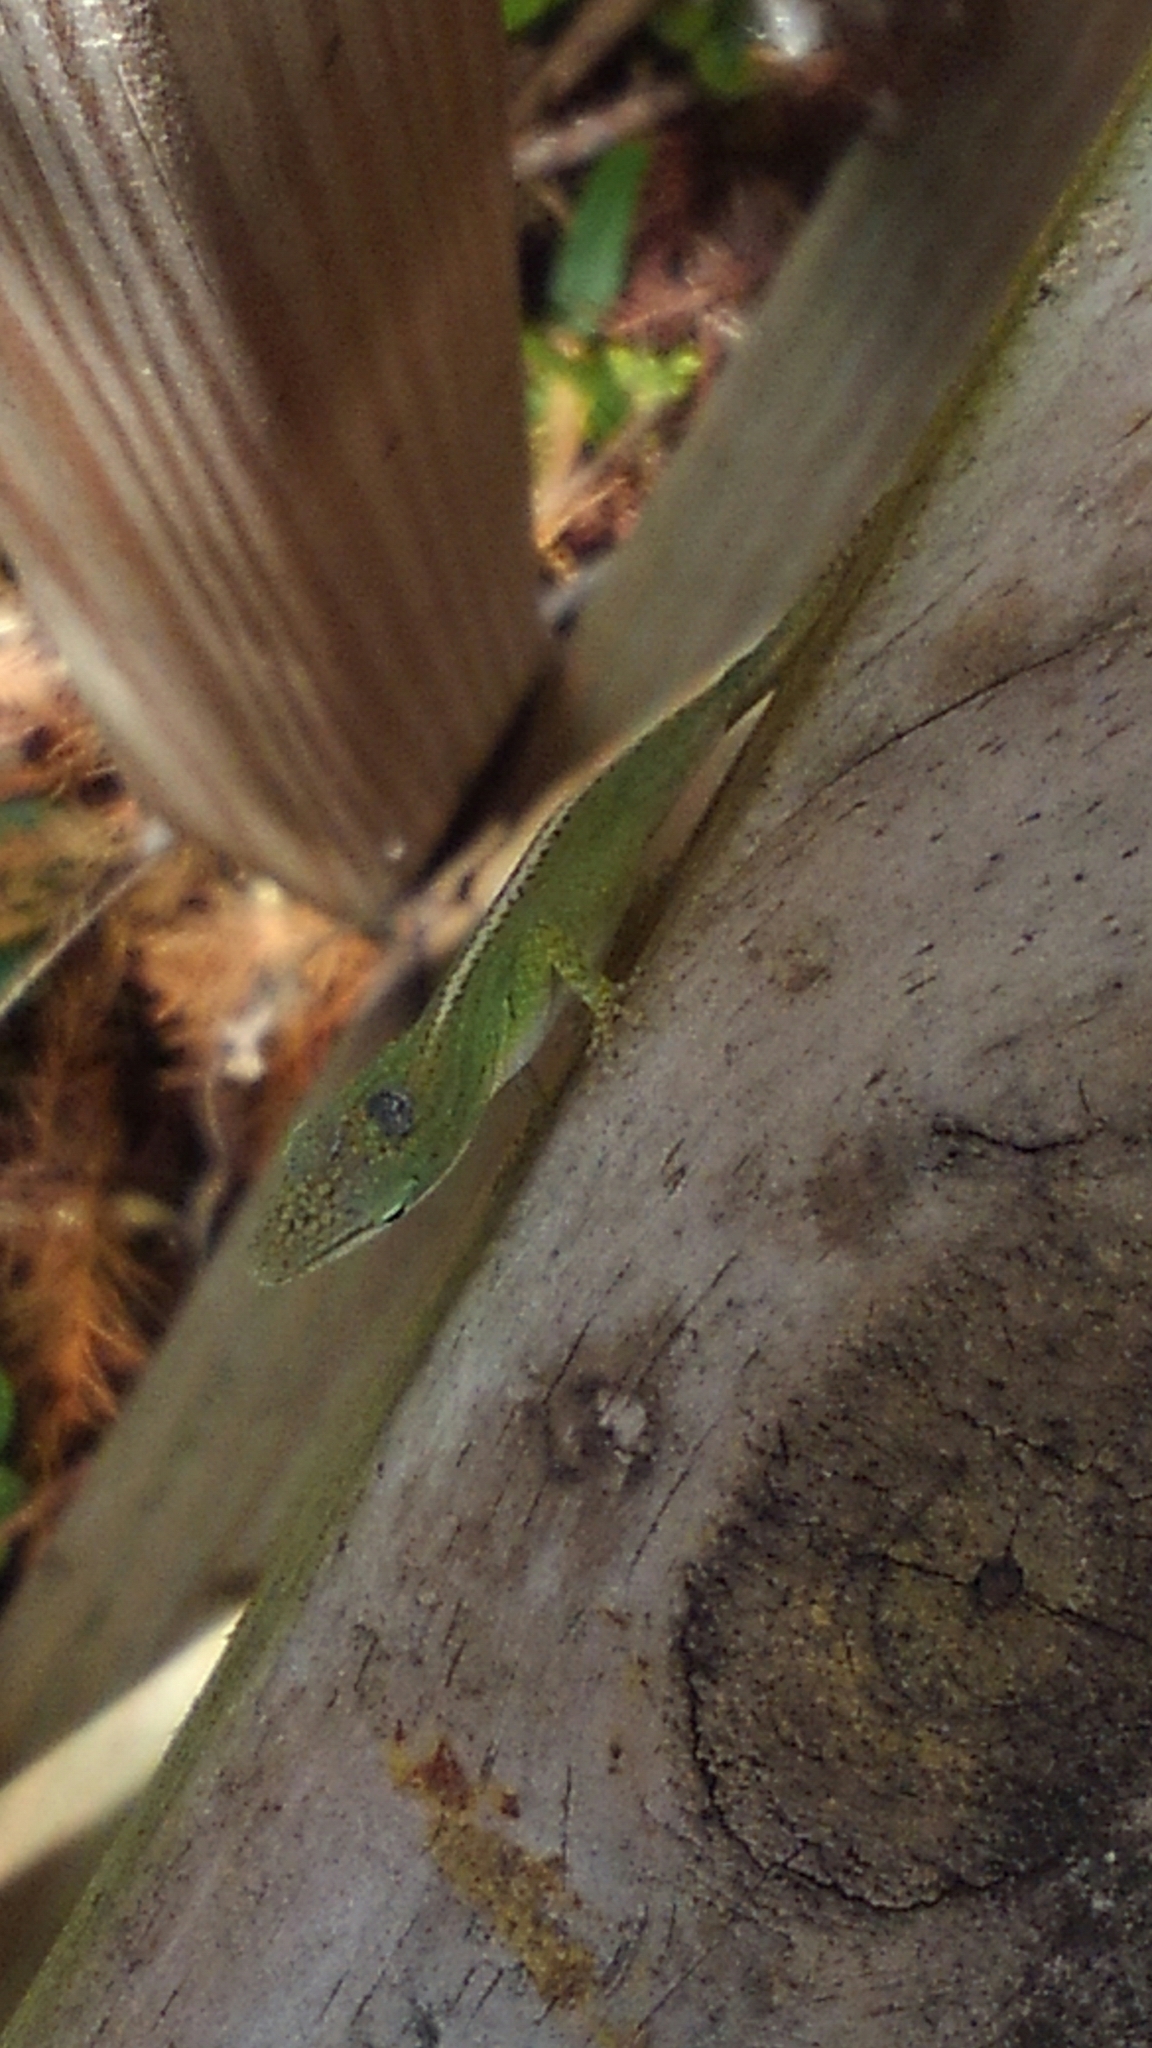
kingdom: Animalia
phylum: Chordata
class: Squamata
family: Dactyloidae
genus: Anolis
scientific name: Anolis carolinensis
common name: Green anole
